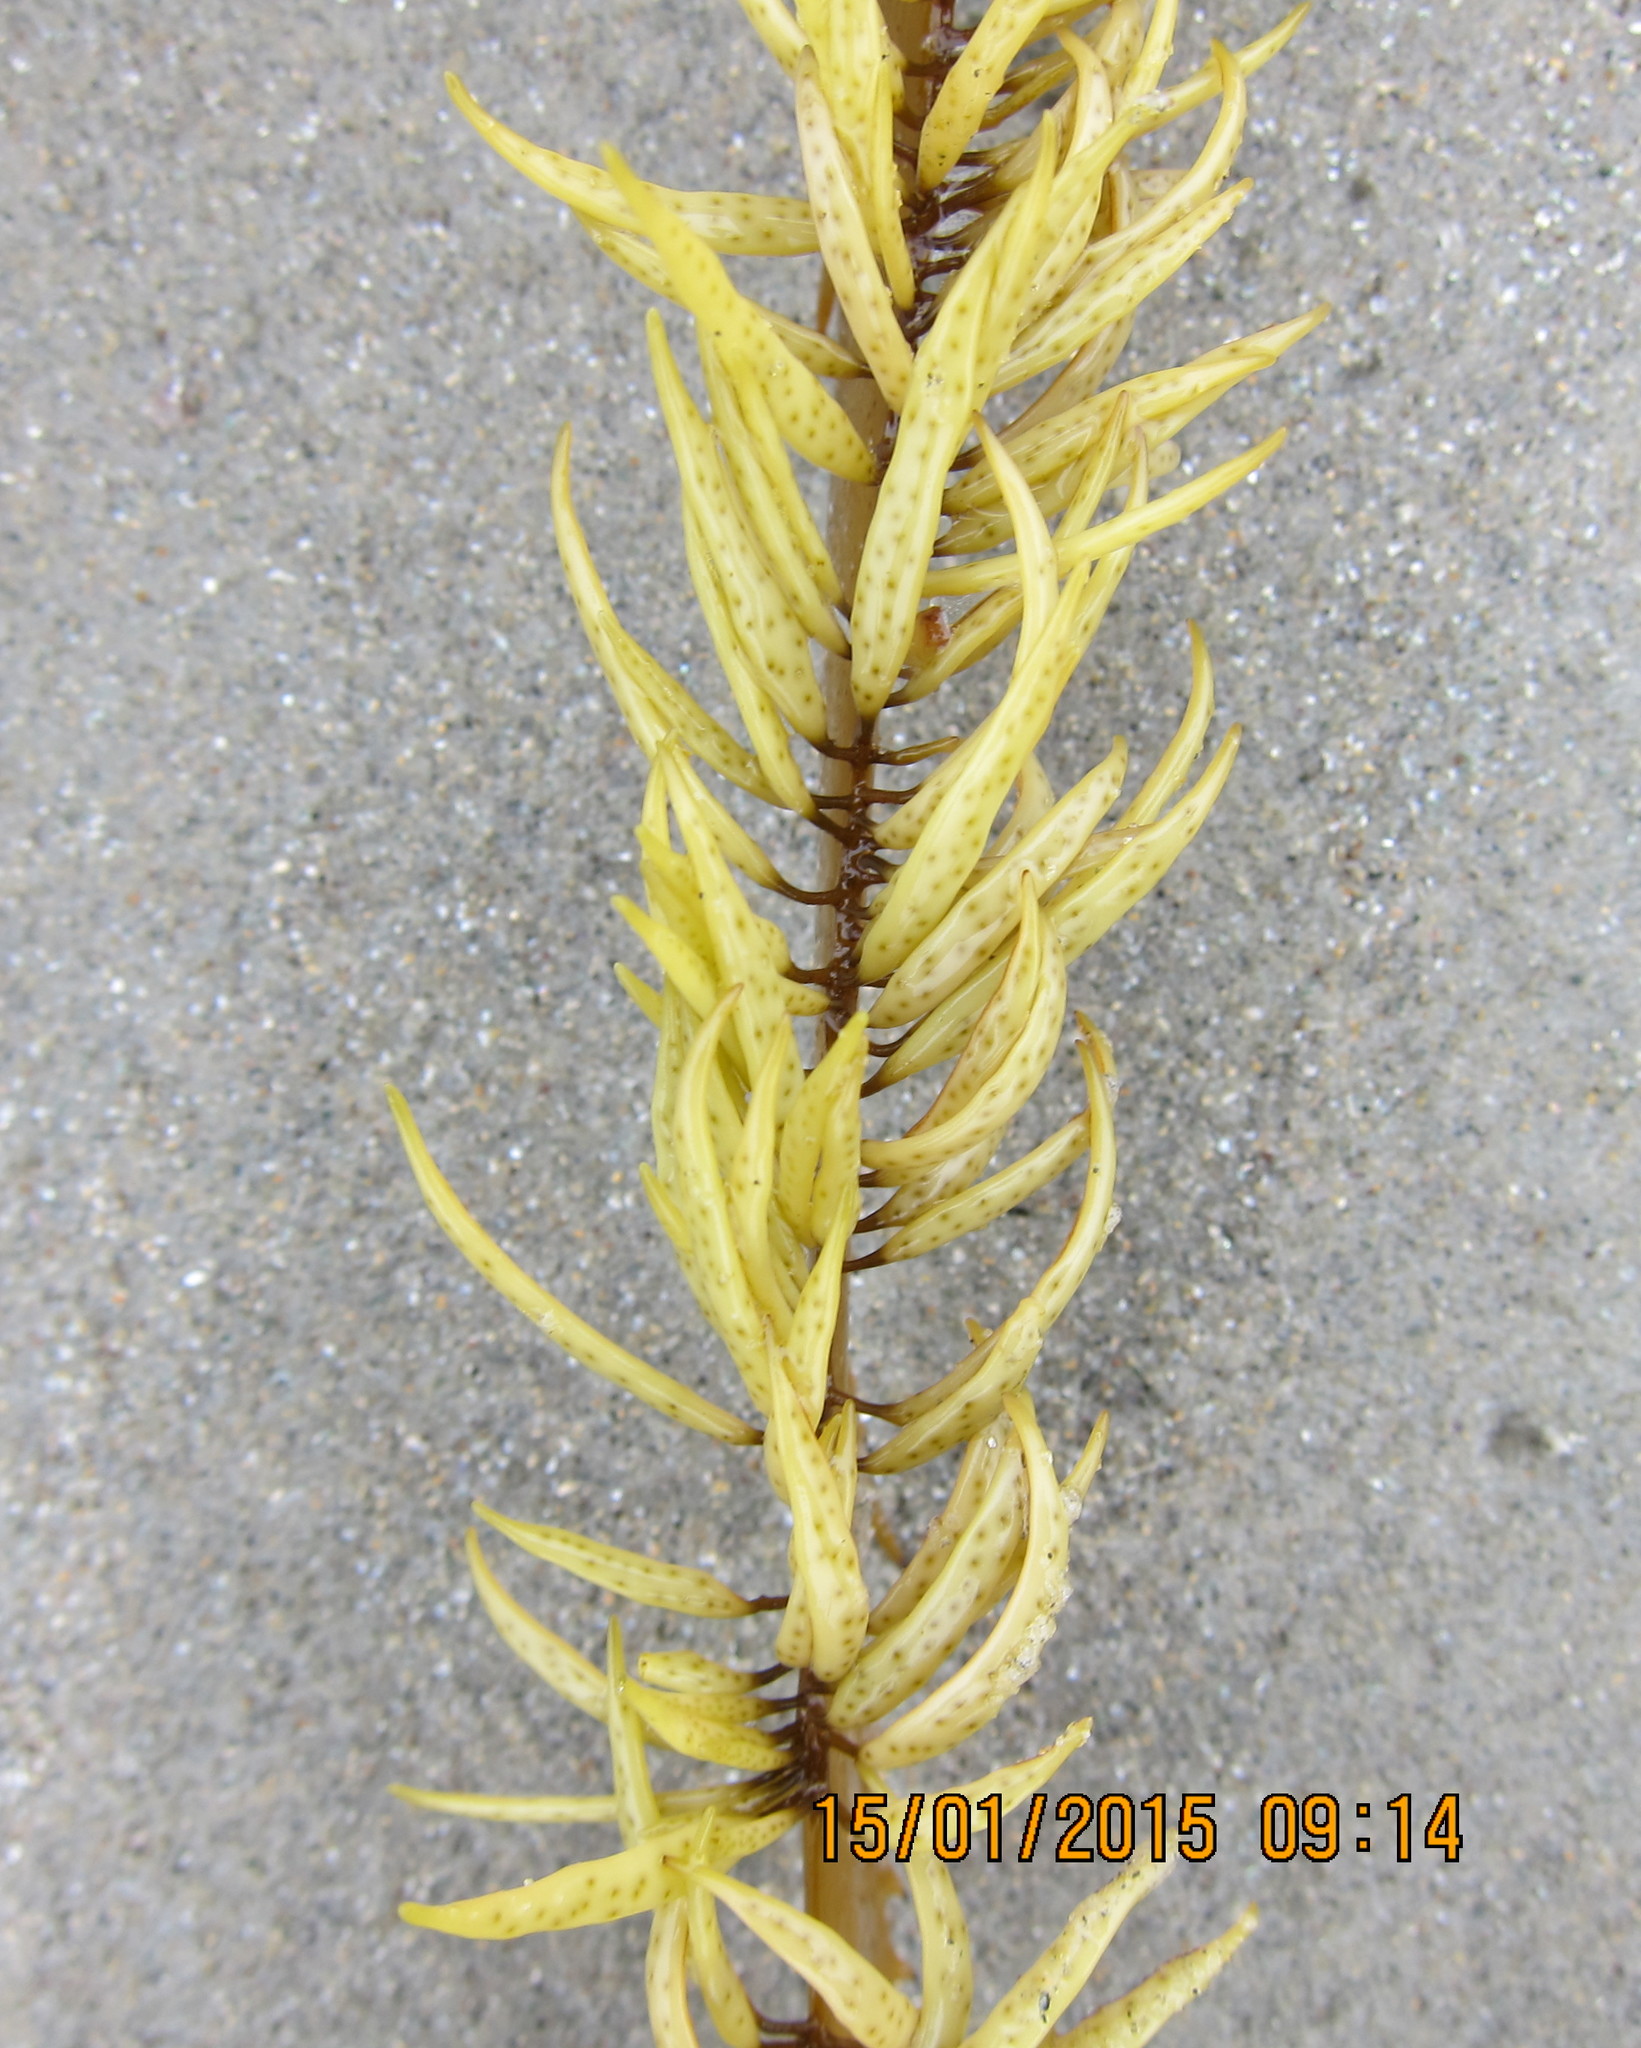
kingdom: Chromista
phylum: Ochrophyta
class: Phaeophyceae
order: Fucales
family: Seirococcaceae
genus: Marginariella
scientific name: Marginariella urvilliana
